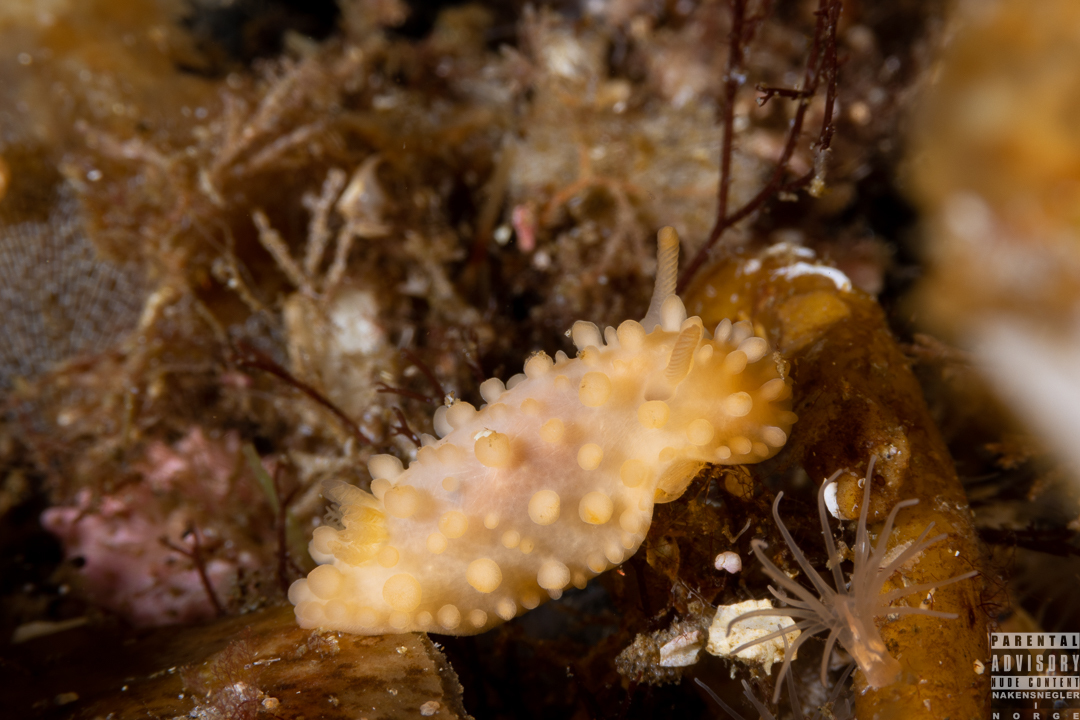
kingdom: Animalia
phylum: Mollusca
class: Gastropoda
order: Nudibranchia
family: Onchidorididae
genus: Adalaria
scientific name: Adalaria loveni
